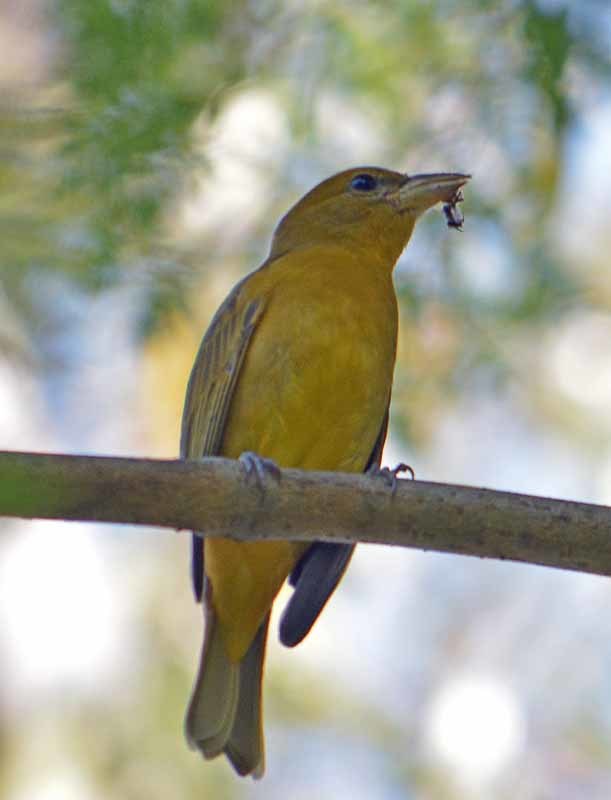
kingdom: Animalia
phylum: Chordata
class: Aves
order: Passeriformes
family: Cardinalidae
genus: Piranga
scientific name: Piranga rubra
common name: Summer tanager
